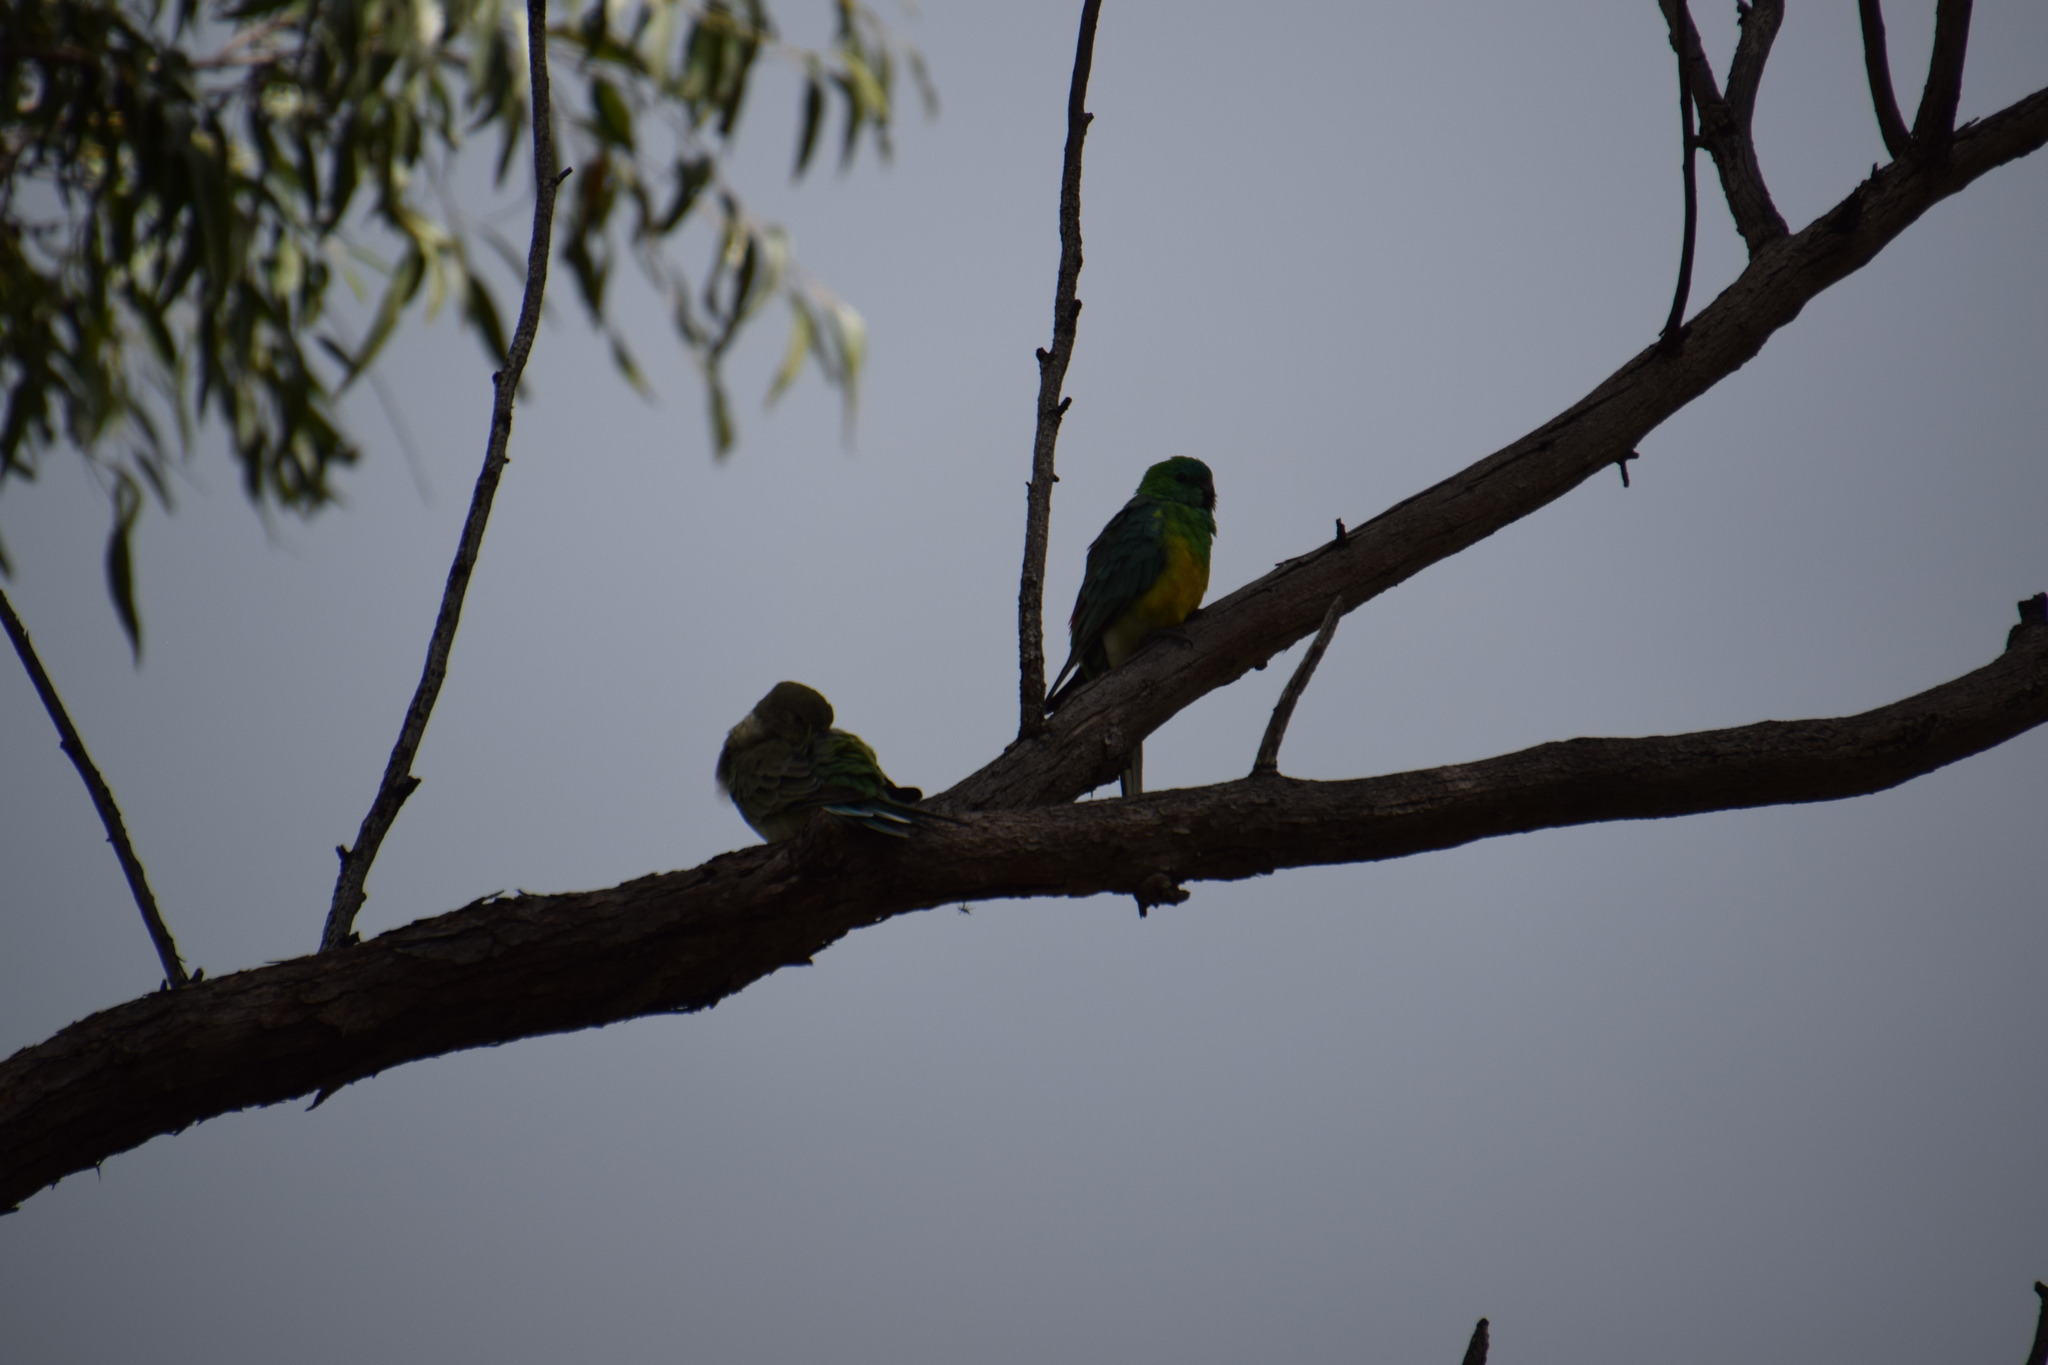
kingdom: Animalia
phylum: Chordata
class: Aves
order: Psittaciformes
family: Psittacidae
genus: Psephotus
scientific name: Psephotus haematonotus
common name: Red-rumped parrot
